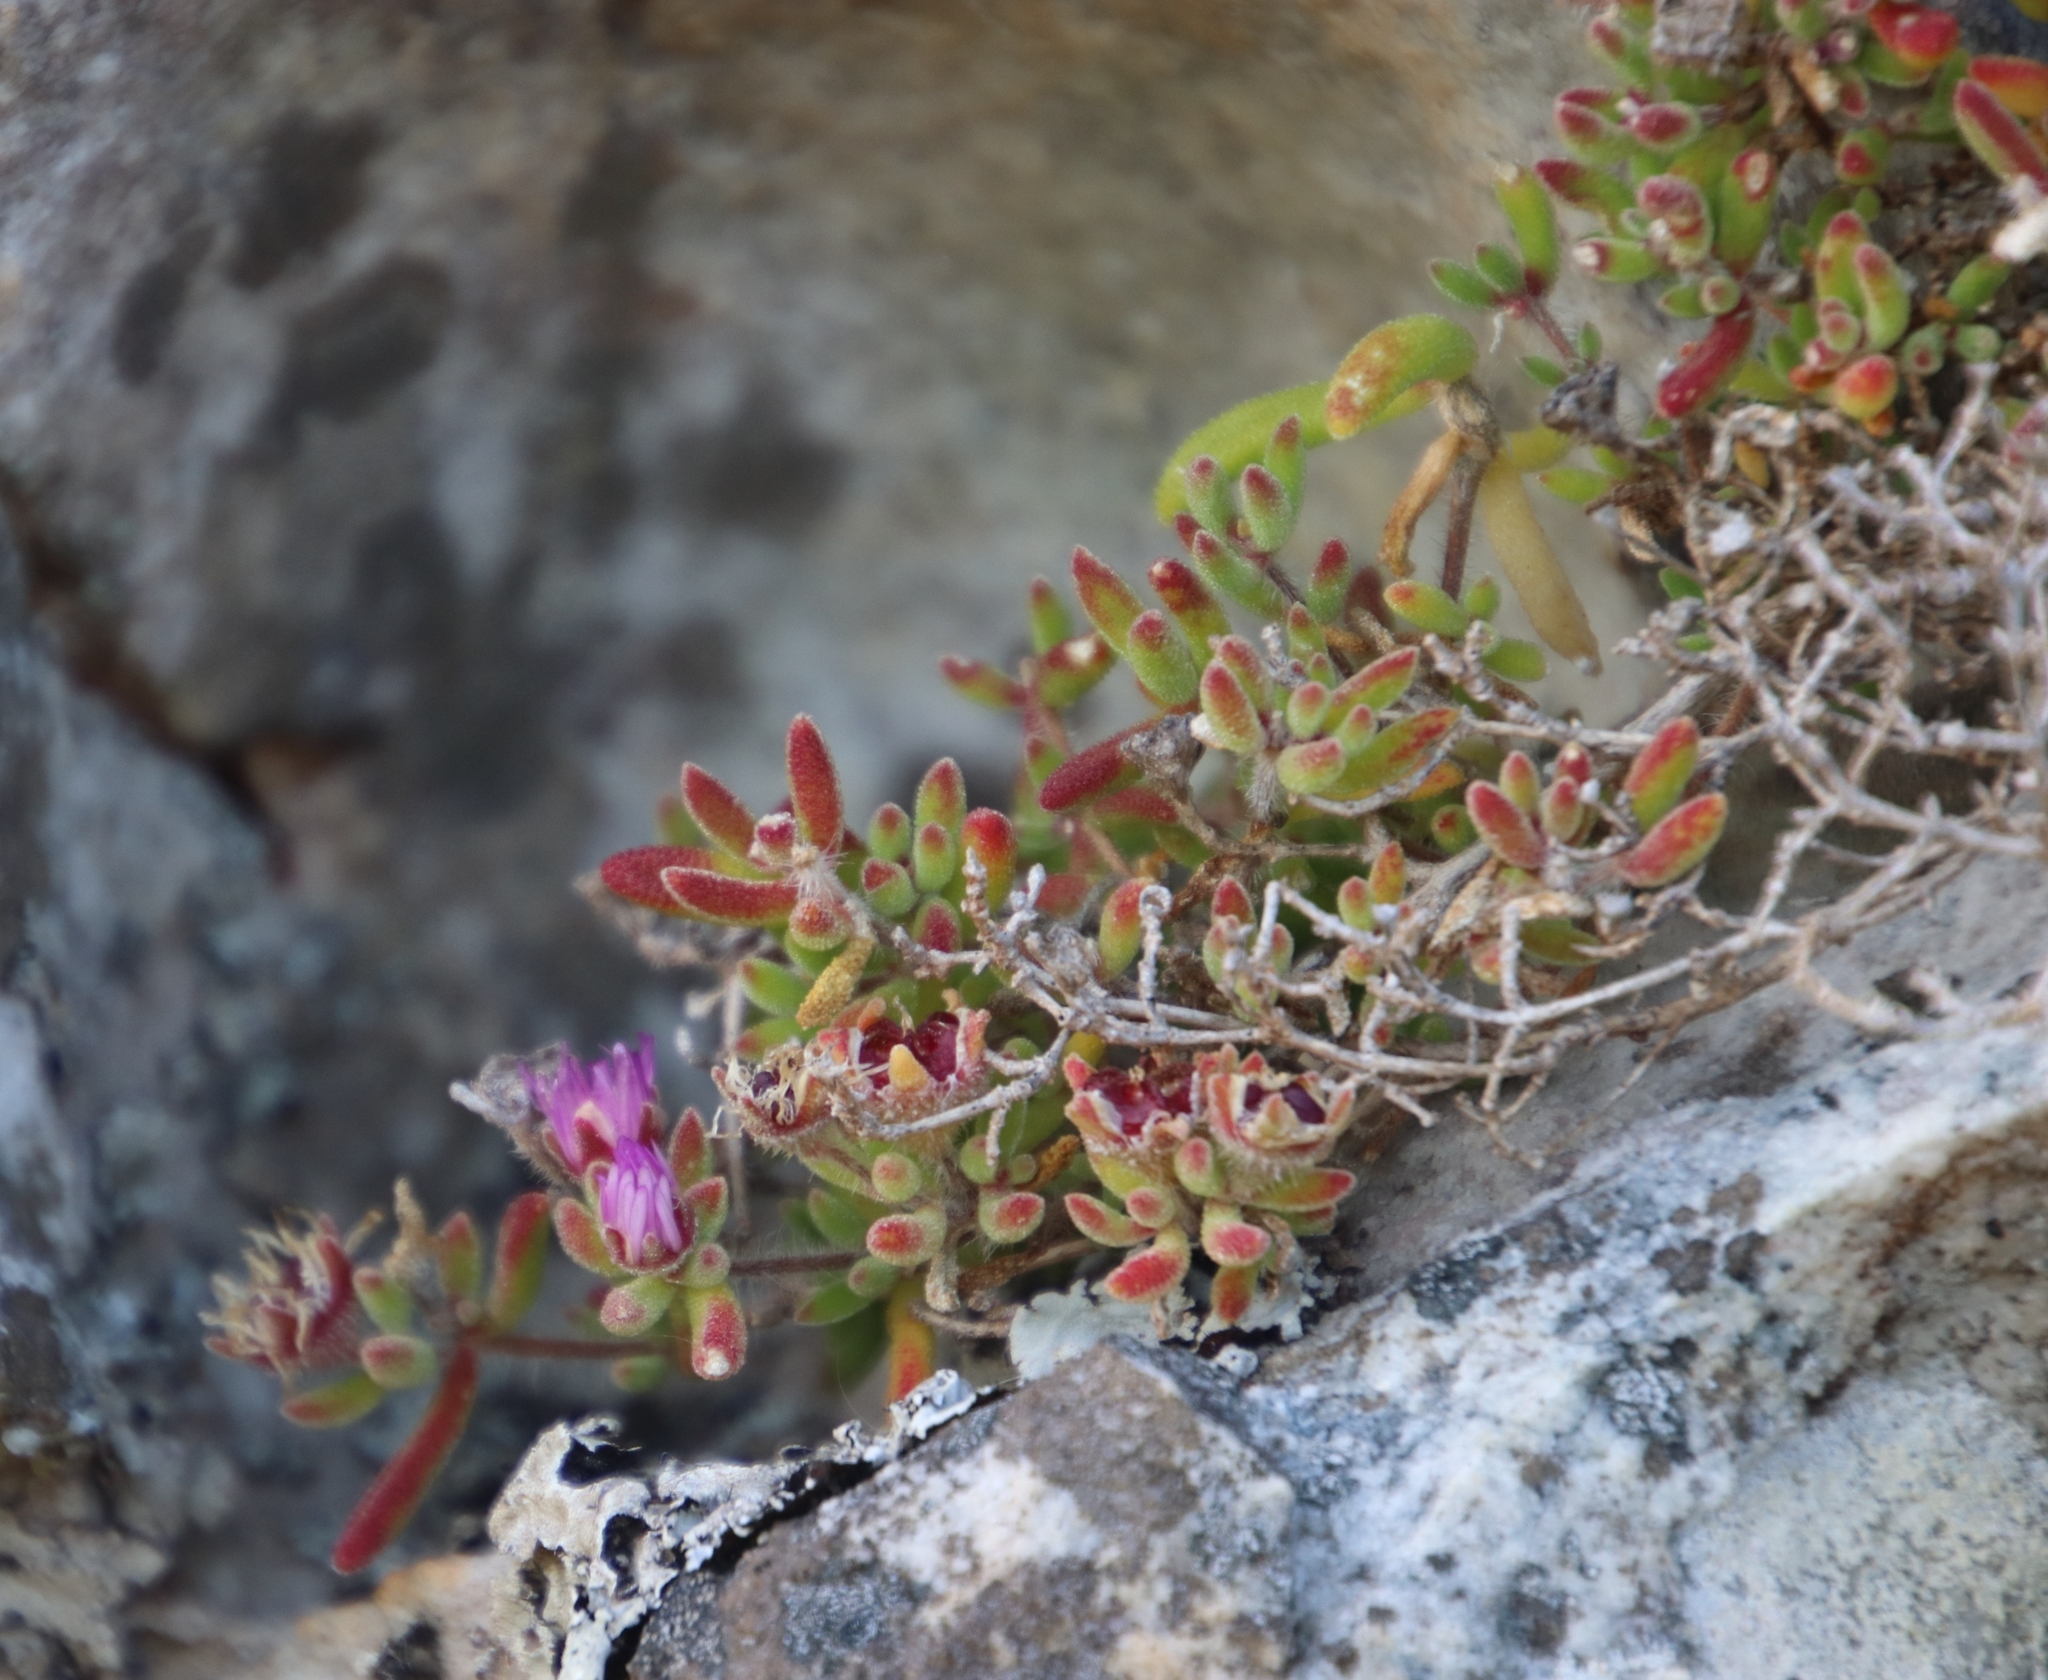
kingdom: Plantae
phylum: Tracheophyta
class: Magnoliopsida
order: Caryophyllales
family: Aizoaceae
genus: Drosanthemum
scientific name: Drosanthemum stokoei
